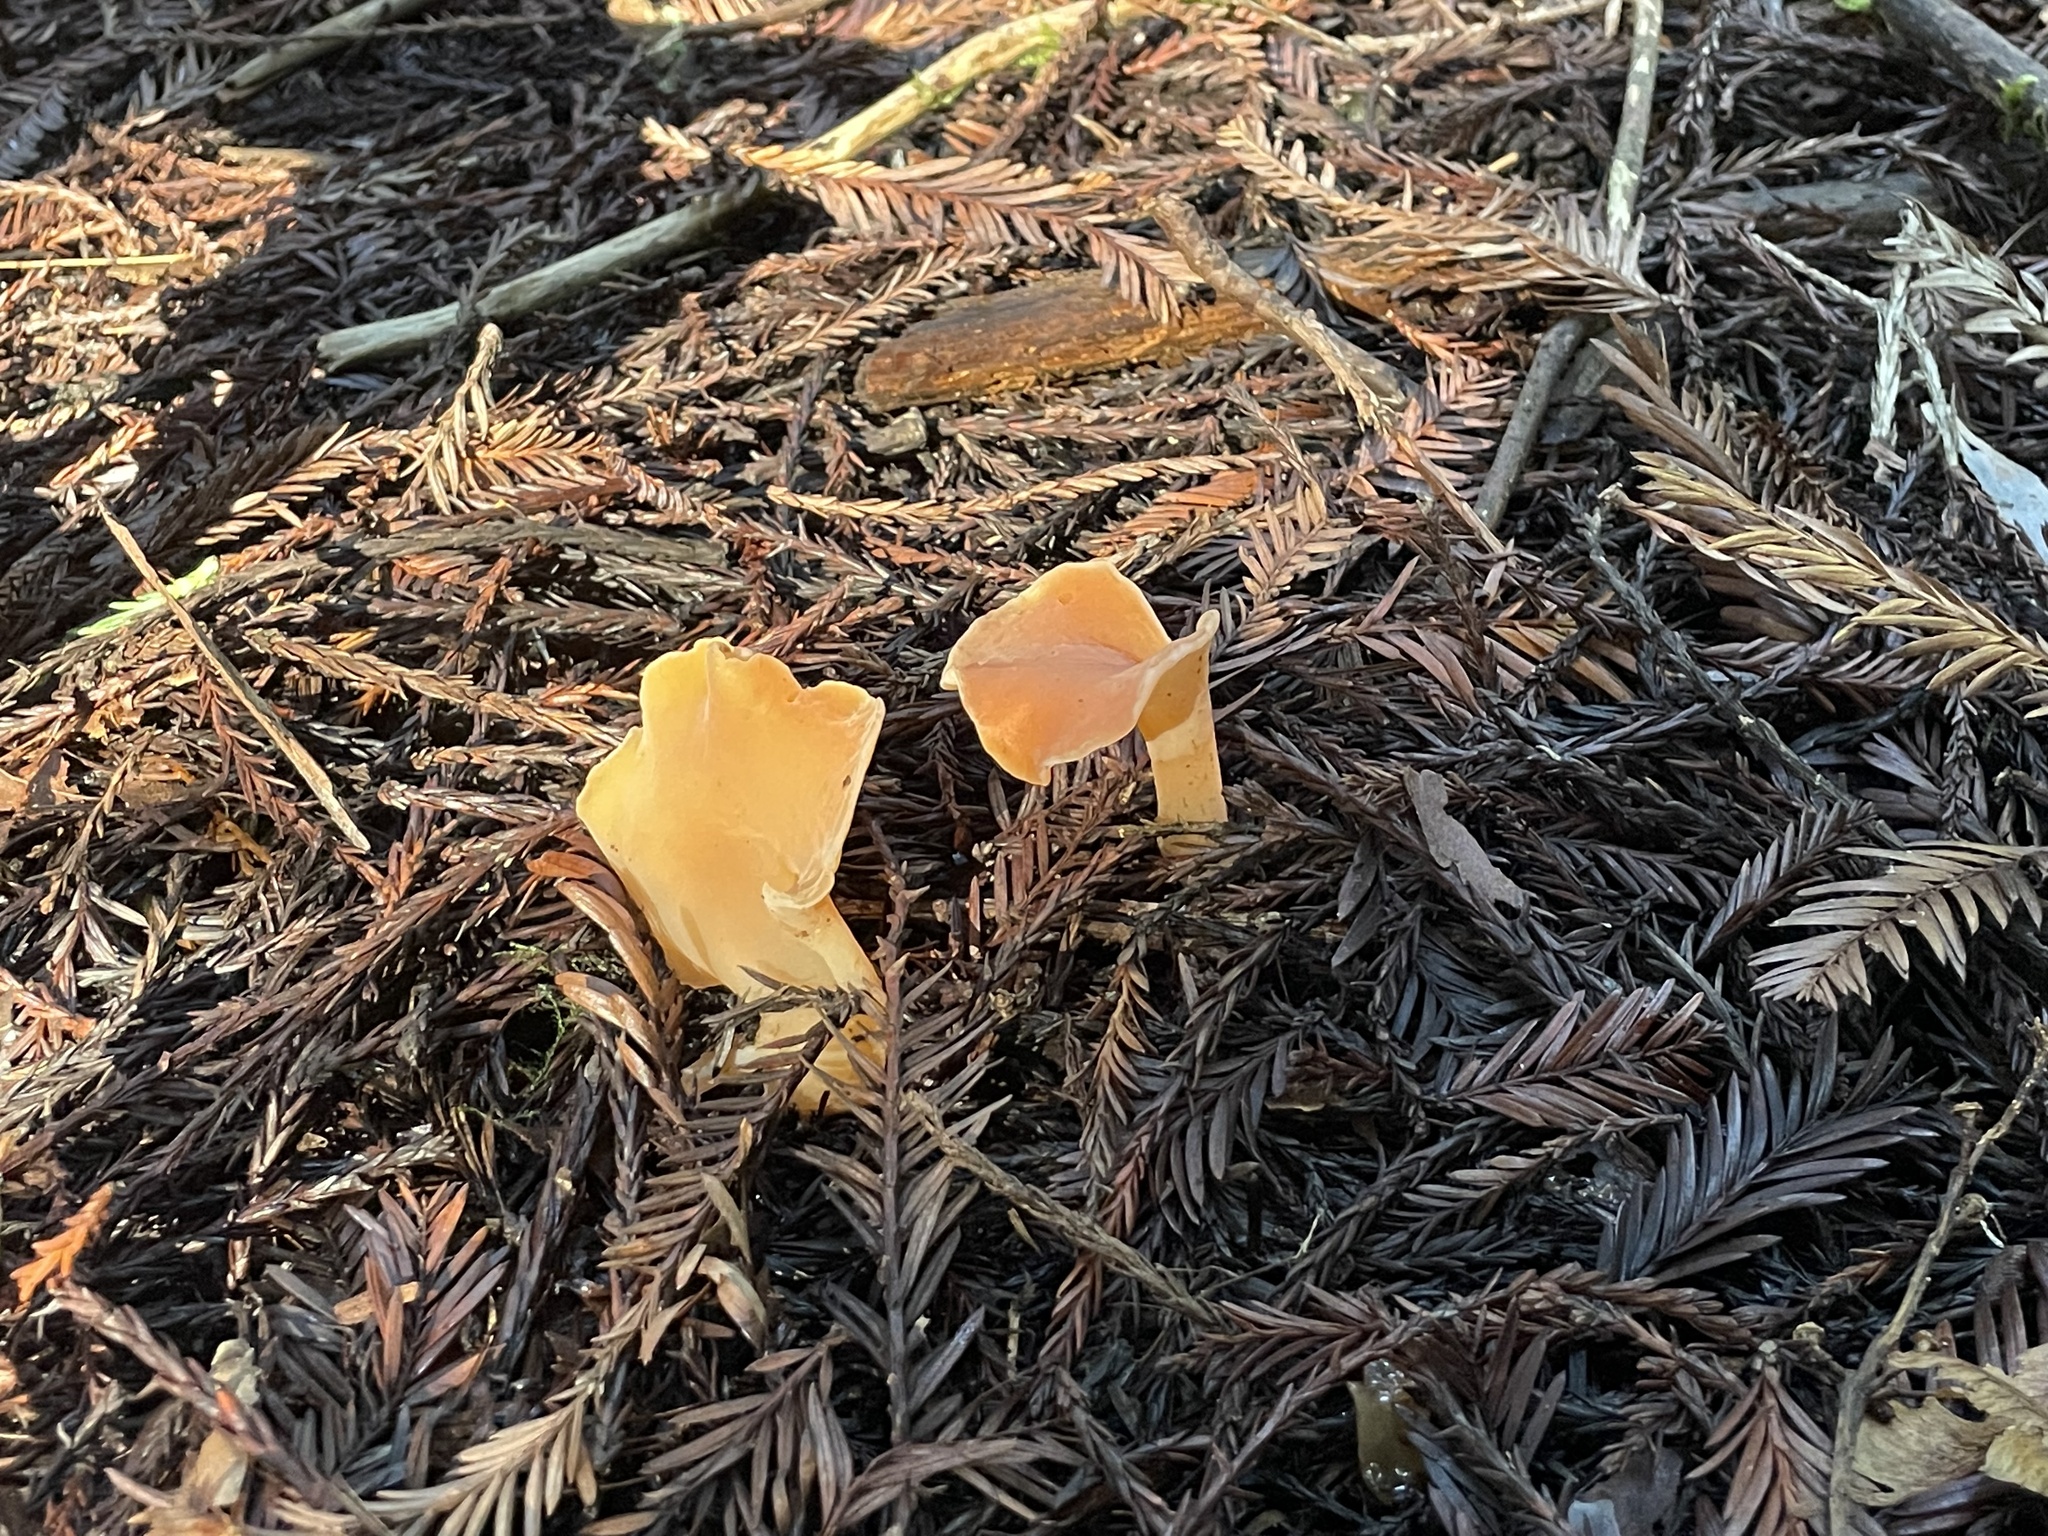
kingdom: Fungi
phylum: Basidiomycota
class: Agaricomycetes
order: Auriculariales
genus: Guepinia
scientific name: Guepinia helvelloides
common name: Salmon salad
